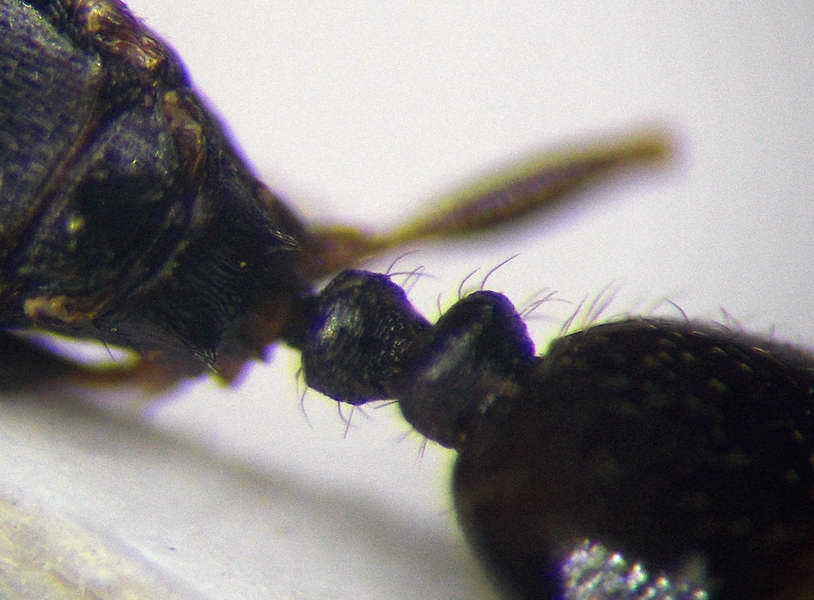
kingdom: Animalia
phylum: Arthropoda
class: Insecta
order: Hymenoptera
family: Formicidae
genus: Tetramorium
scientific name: Tetramorium chefketi
